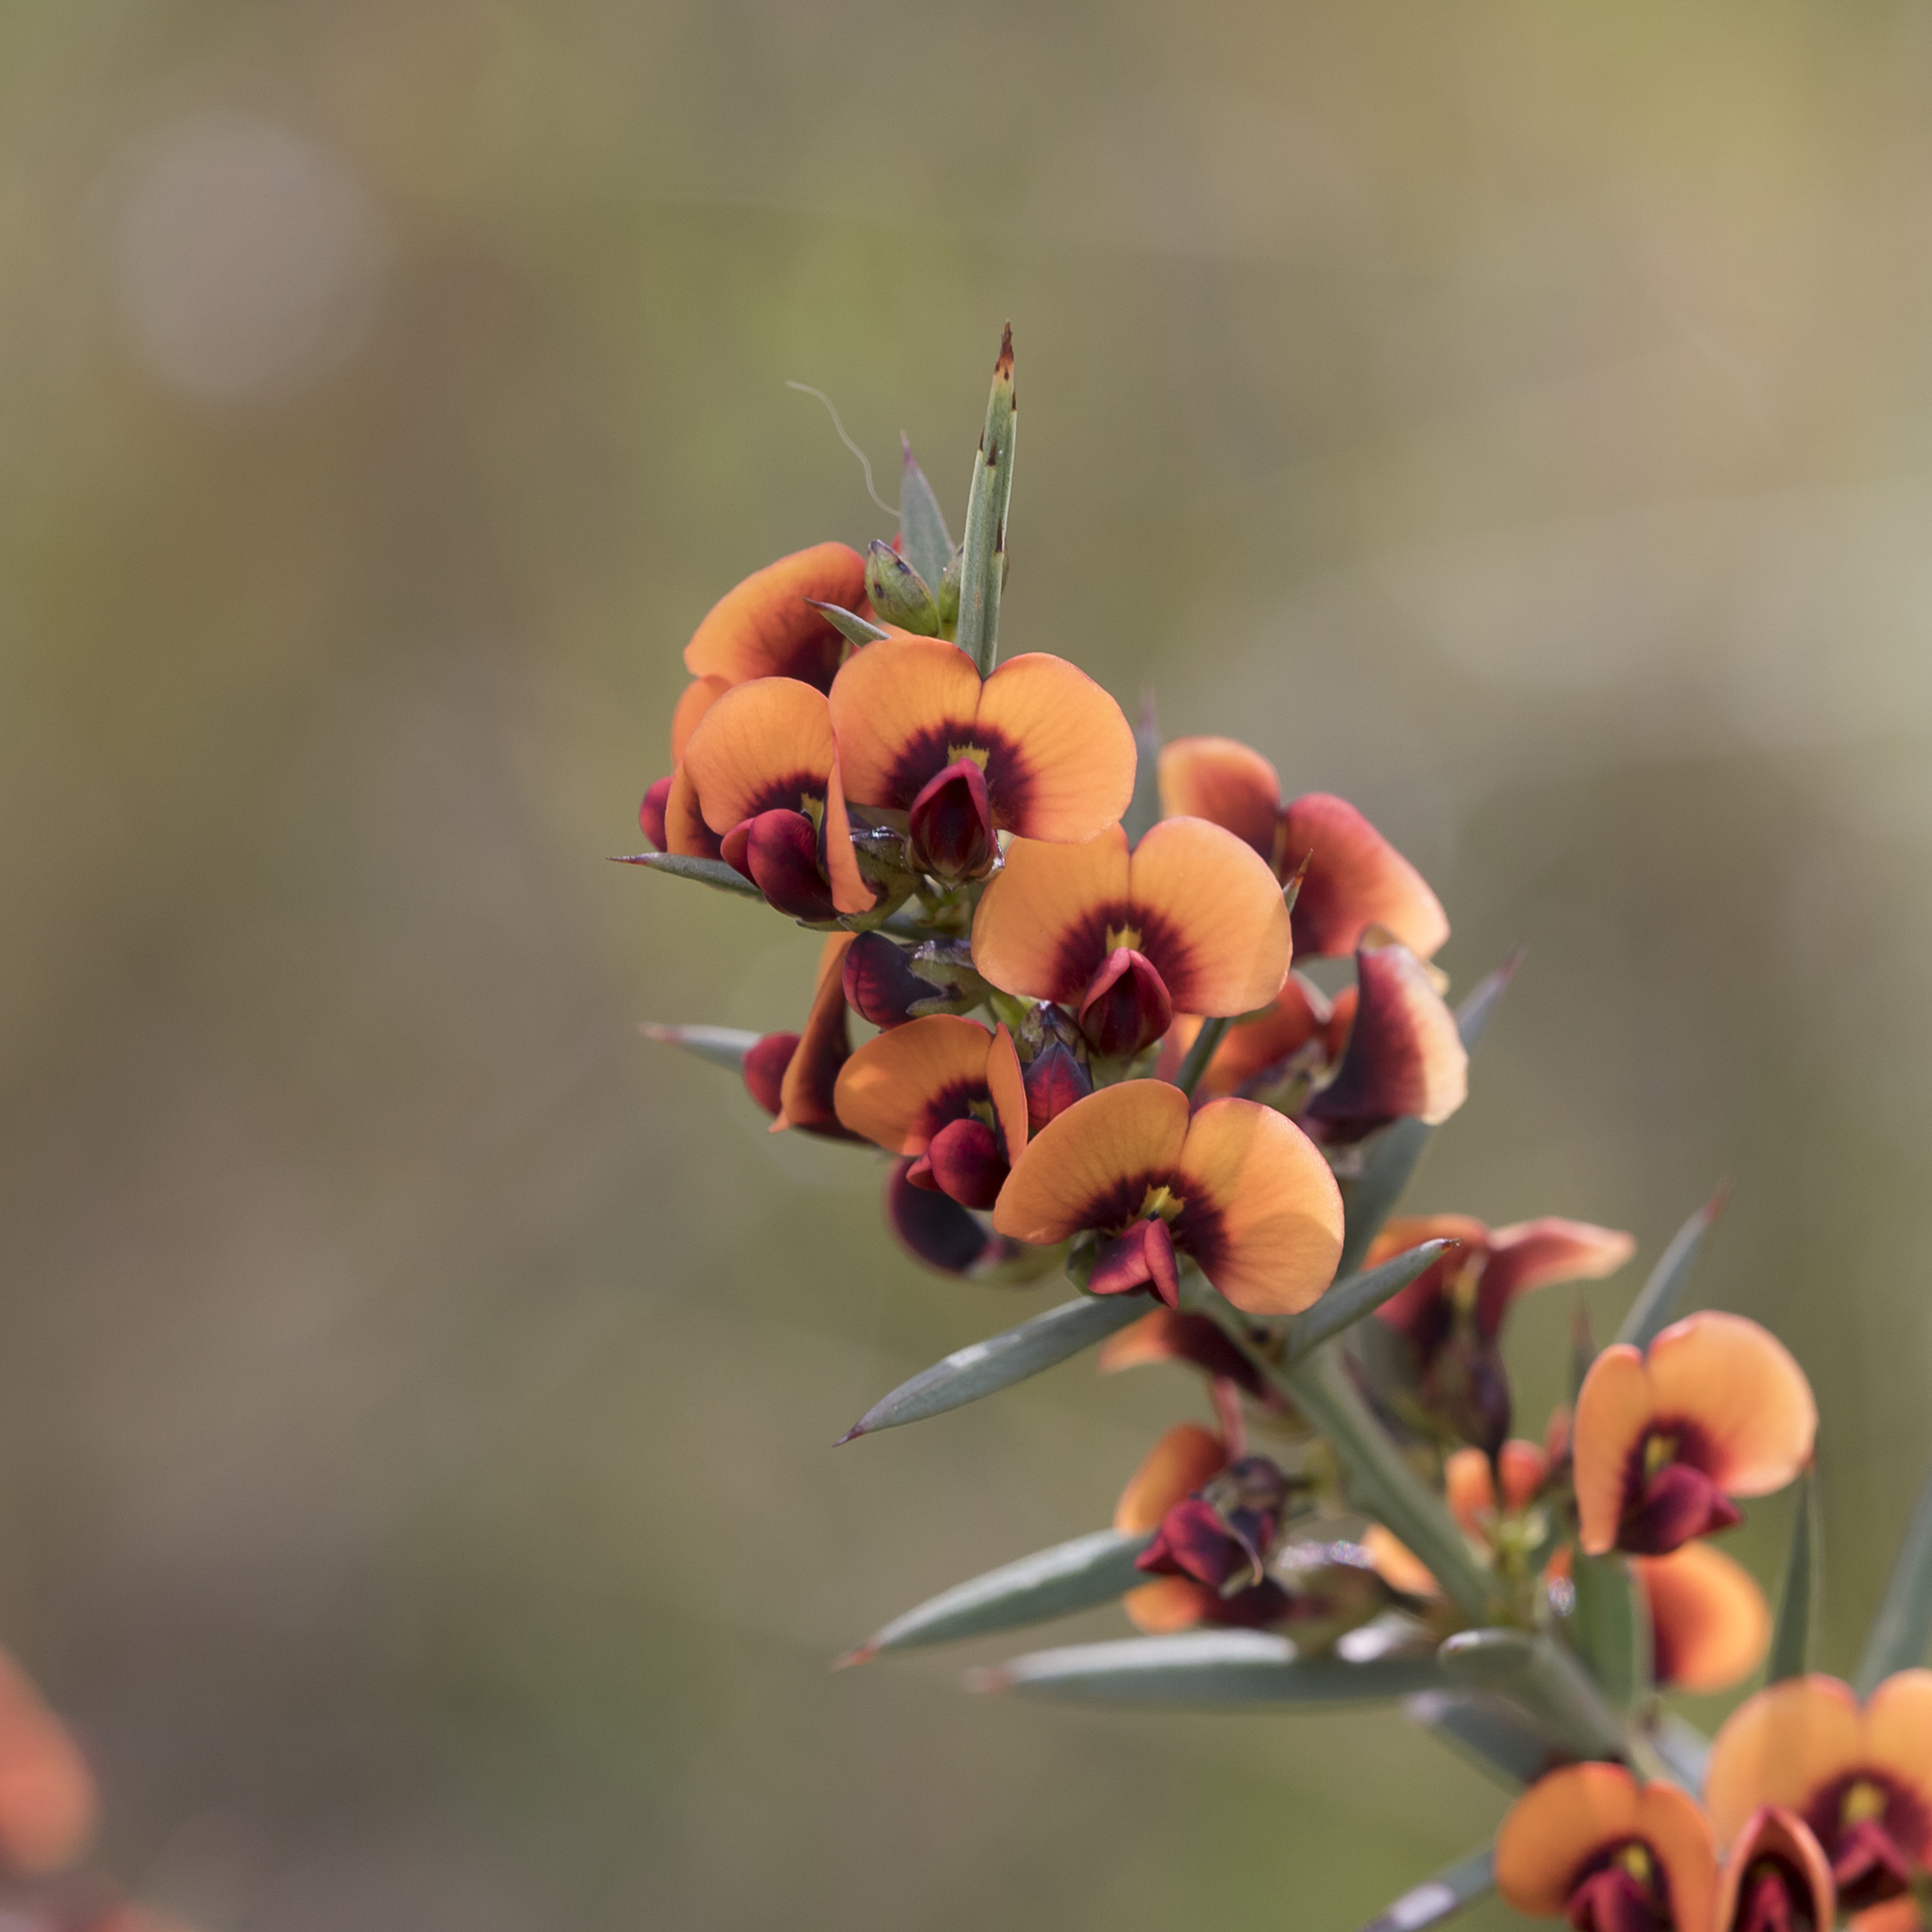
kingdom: Plantae
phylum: Tracheophyta
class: Magnoliopsida
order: Fabales
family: Fabaceae
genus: Daviesia
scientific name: Daviesia ulicifolia
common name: Gorse bitter-pea
